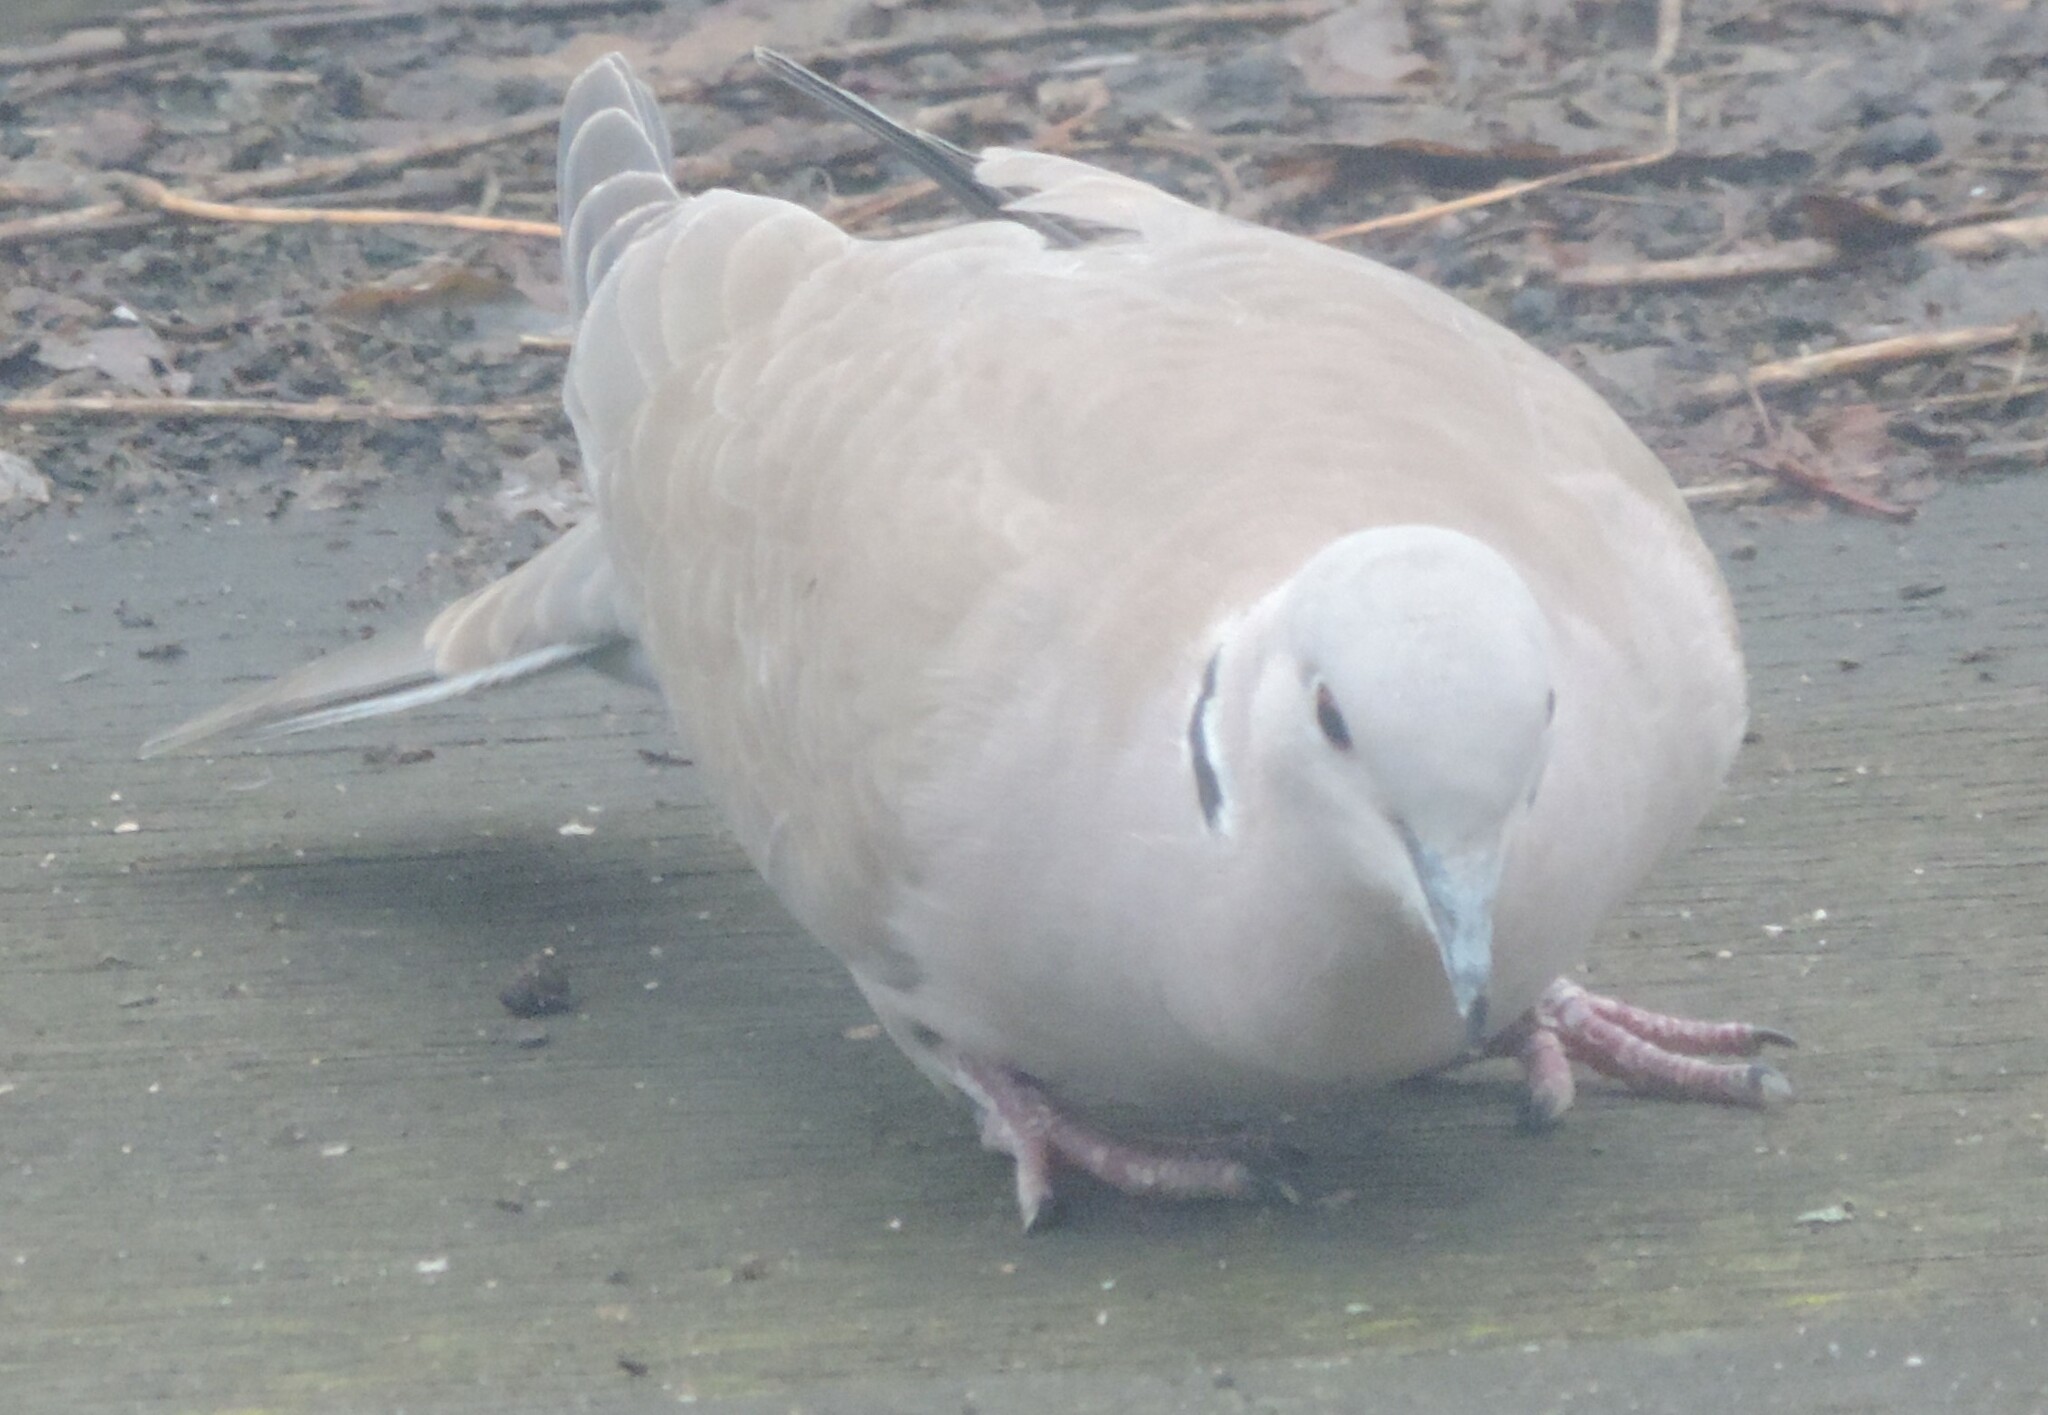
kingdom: Animalia
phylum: Chordata
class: Aves
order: Columbiformes
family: Columbidae
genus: Streptopelia
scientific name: Streptopelia decaocto
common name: Eurasian collared dove
